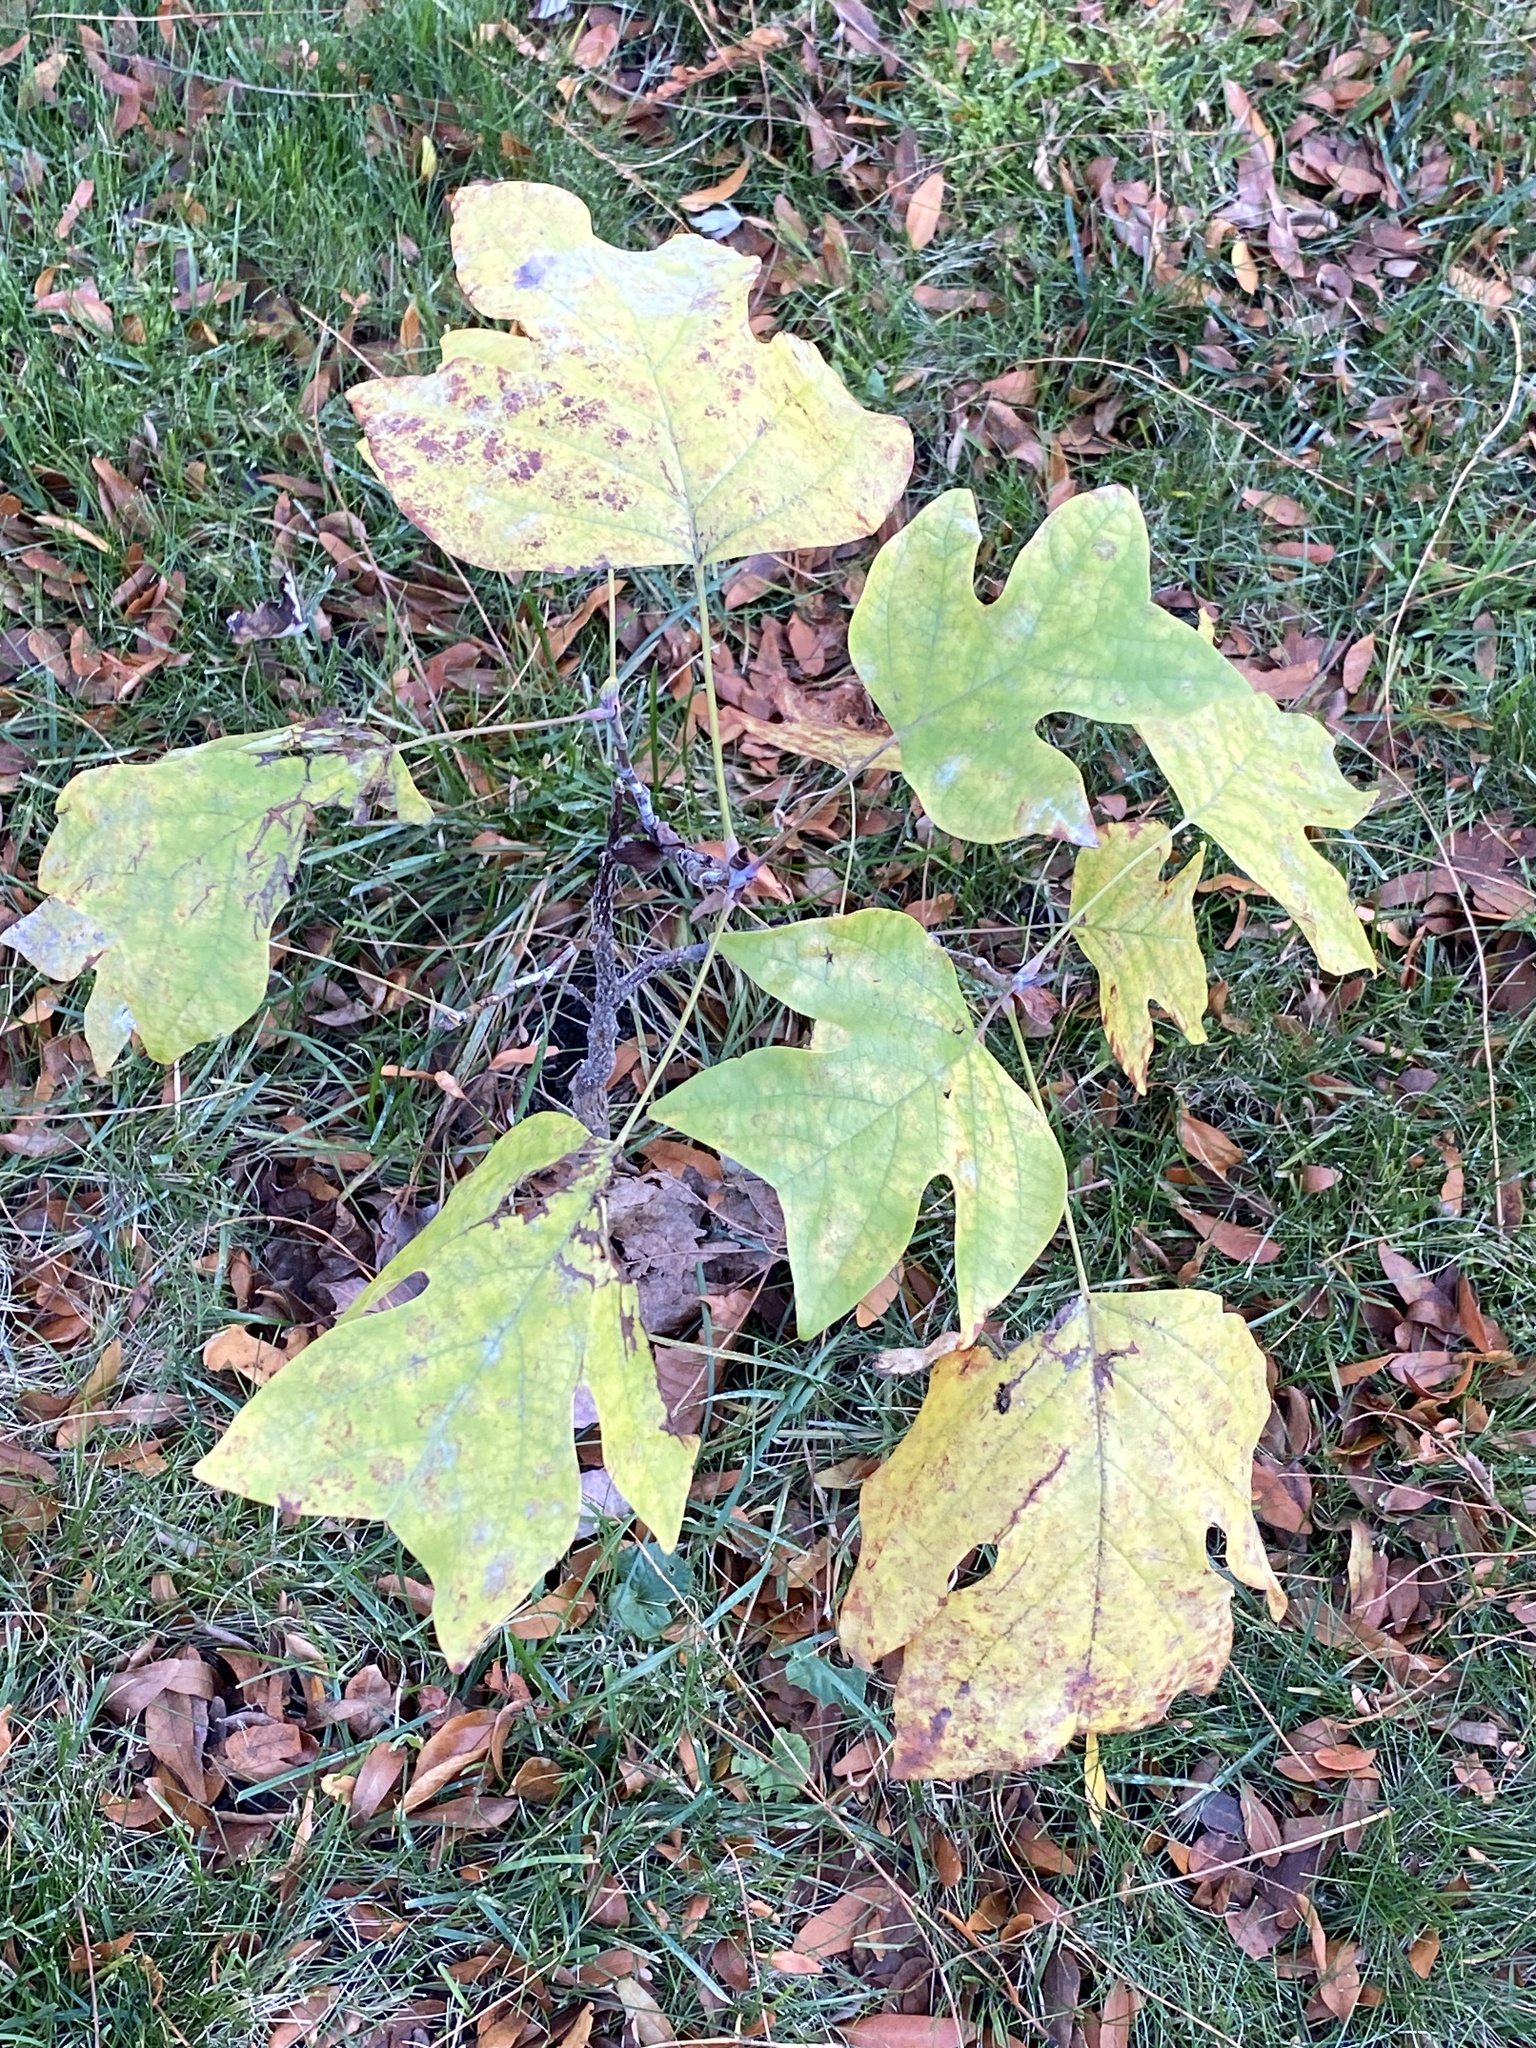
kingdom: Plantae
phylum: Tracheophyta
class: Magnoliopsida
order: Magnoliales
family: Magnoliaceae
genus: Liriodendron
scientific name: Liriodendron tulipifera
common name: Tulip tree
